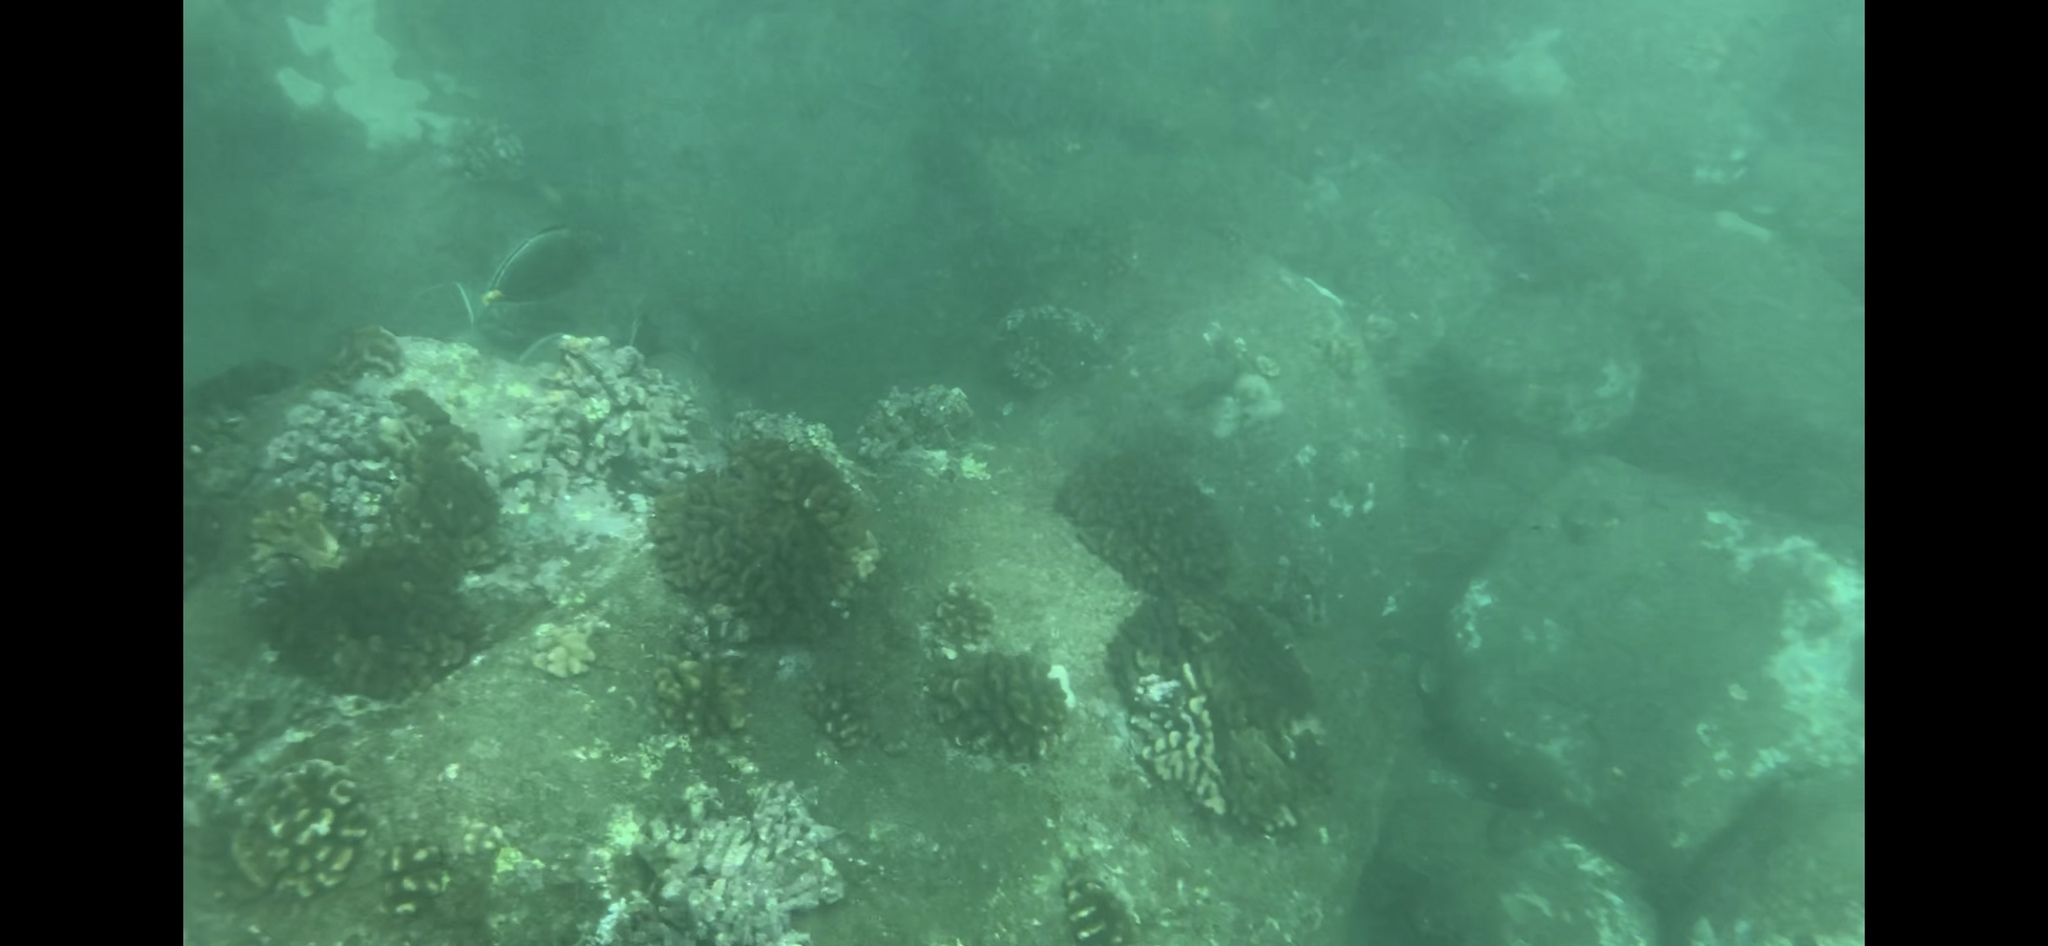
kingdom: Animalia
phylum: Chordata
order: Perciformes
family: Acanthuridae
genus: Naso
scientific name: Naso lituratus
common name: Orangespine unicornfish
